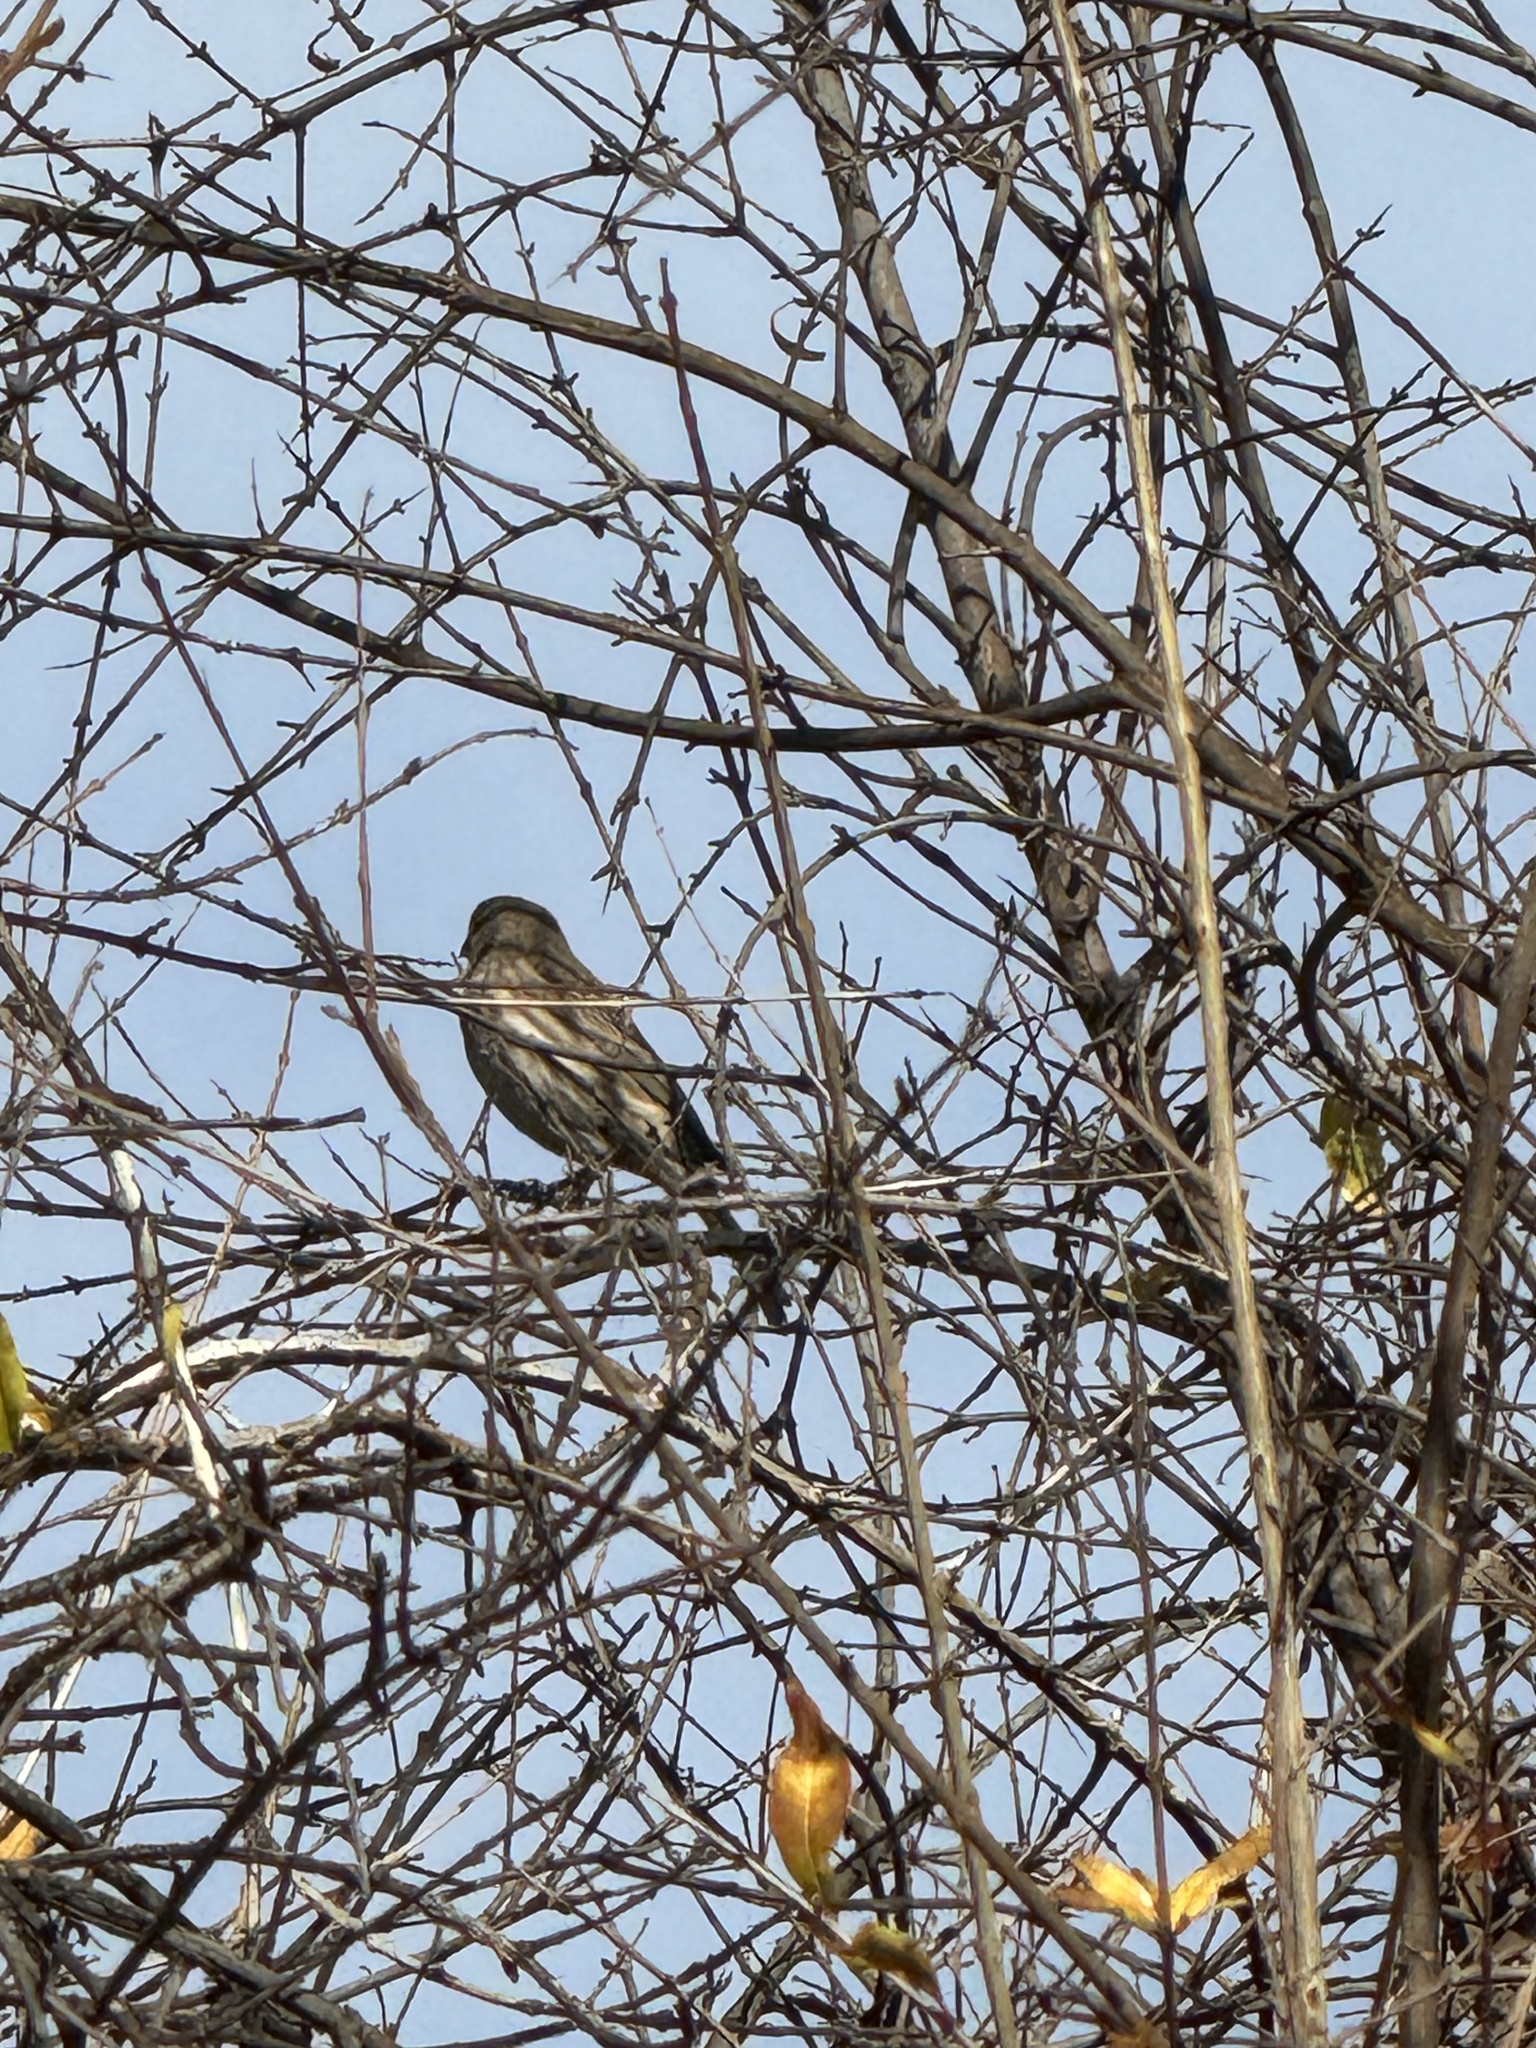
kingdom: Animalia
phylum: Chordata
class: Aves
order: Passeriformes
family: Fringillidae
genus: Haemorhous
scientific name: Haemorhous mexicanus
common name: House finch
